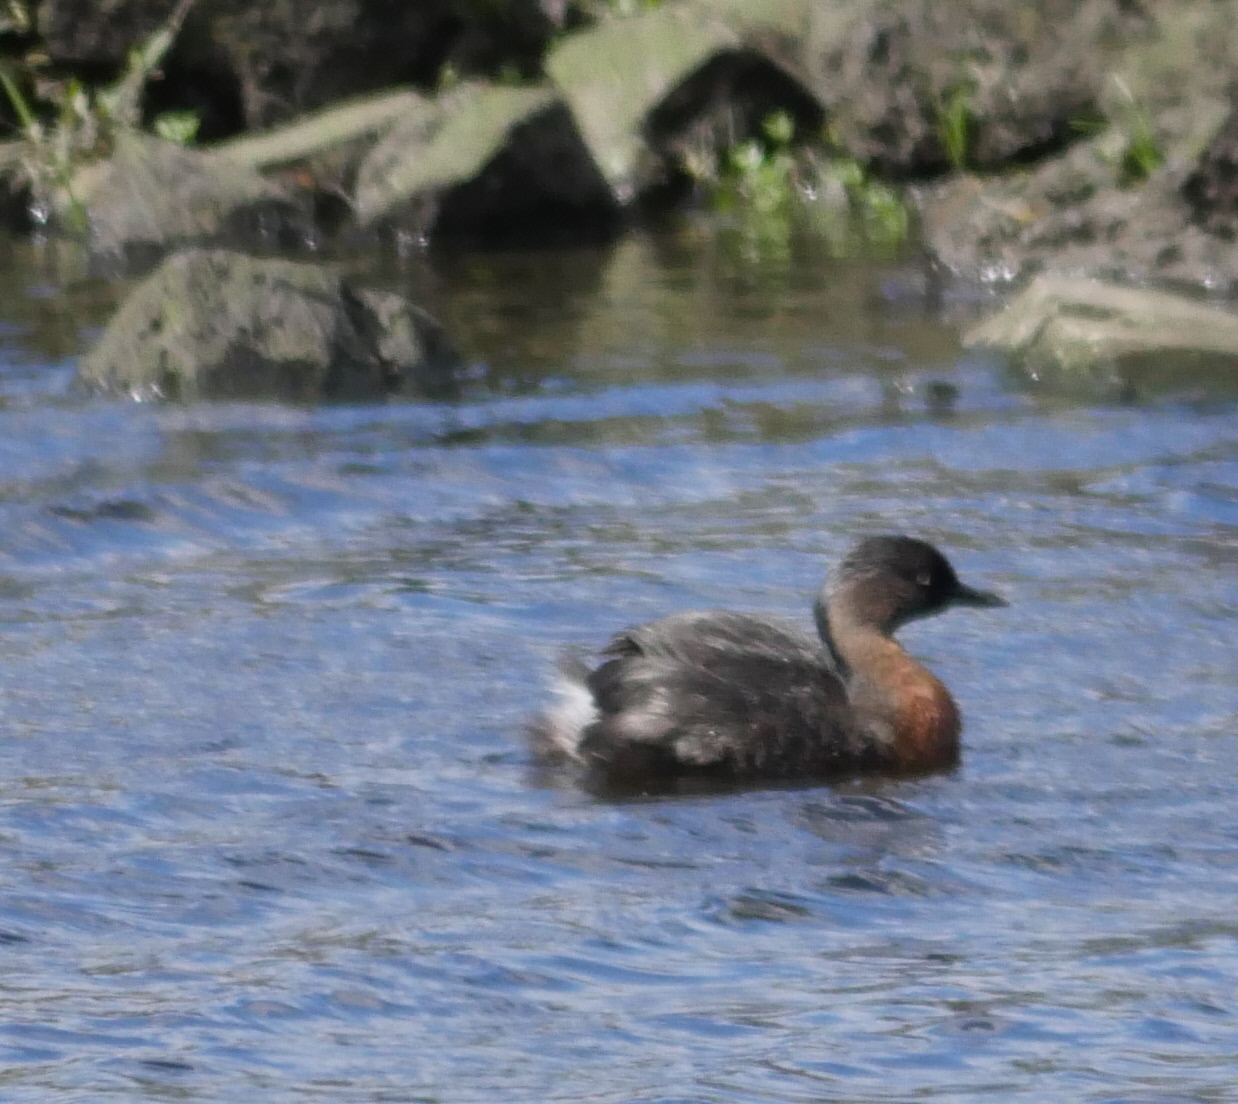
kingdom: Animalia
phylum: Chordata
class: Aves
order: Podicipediformes
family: Podicipedidae
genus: Poliocephalus
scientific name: Poliocephalus rufopectus
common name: New zealand grebe
